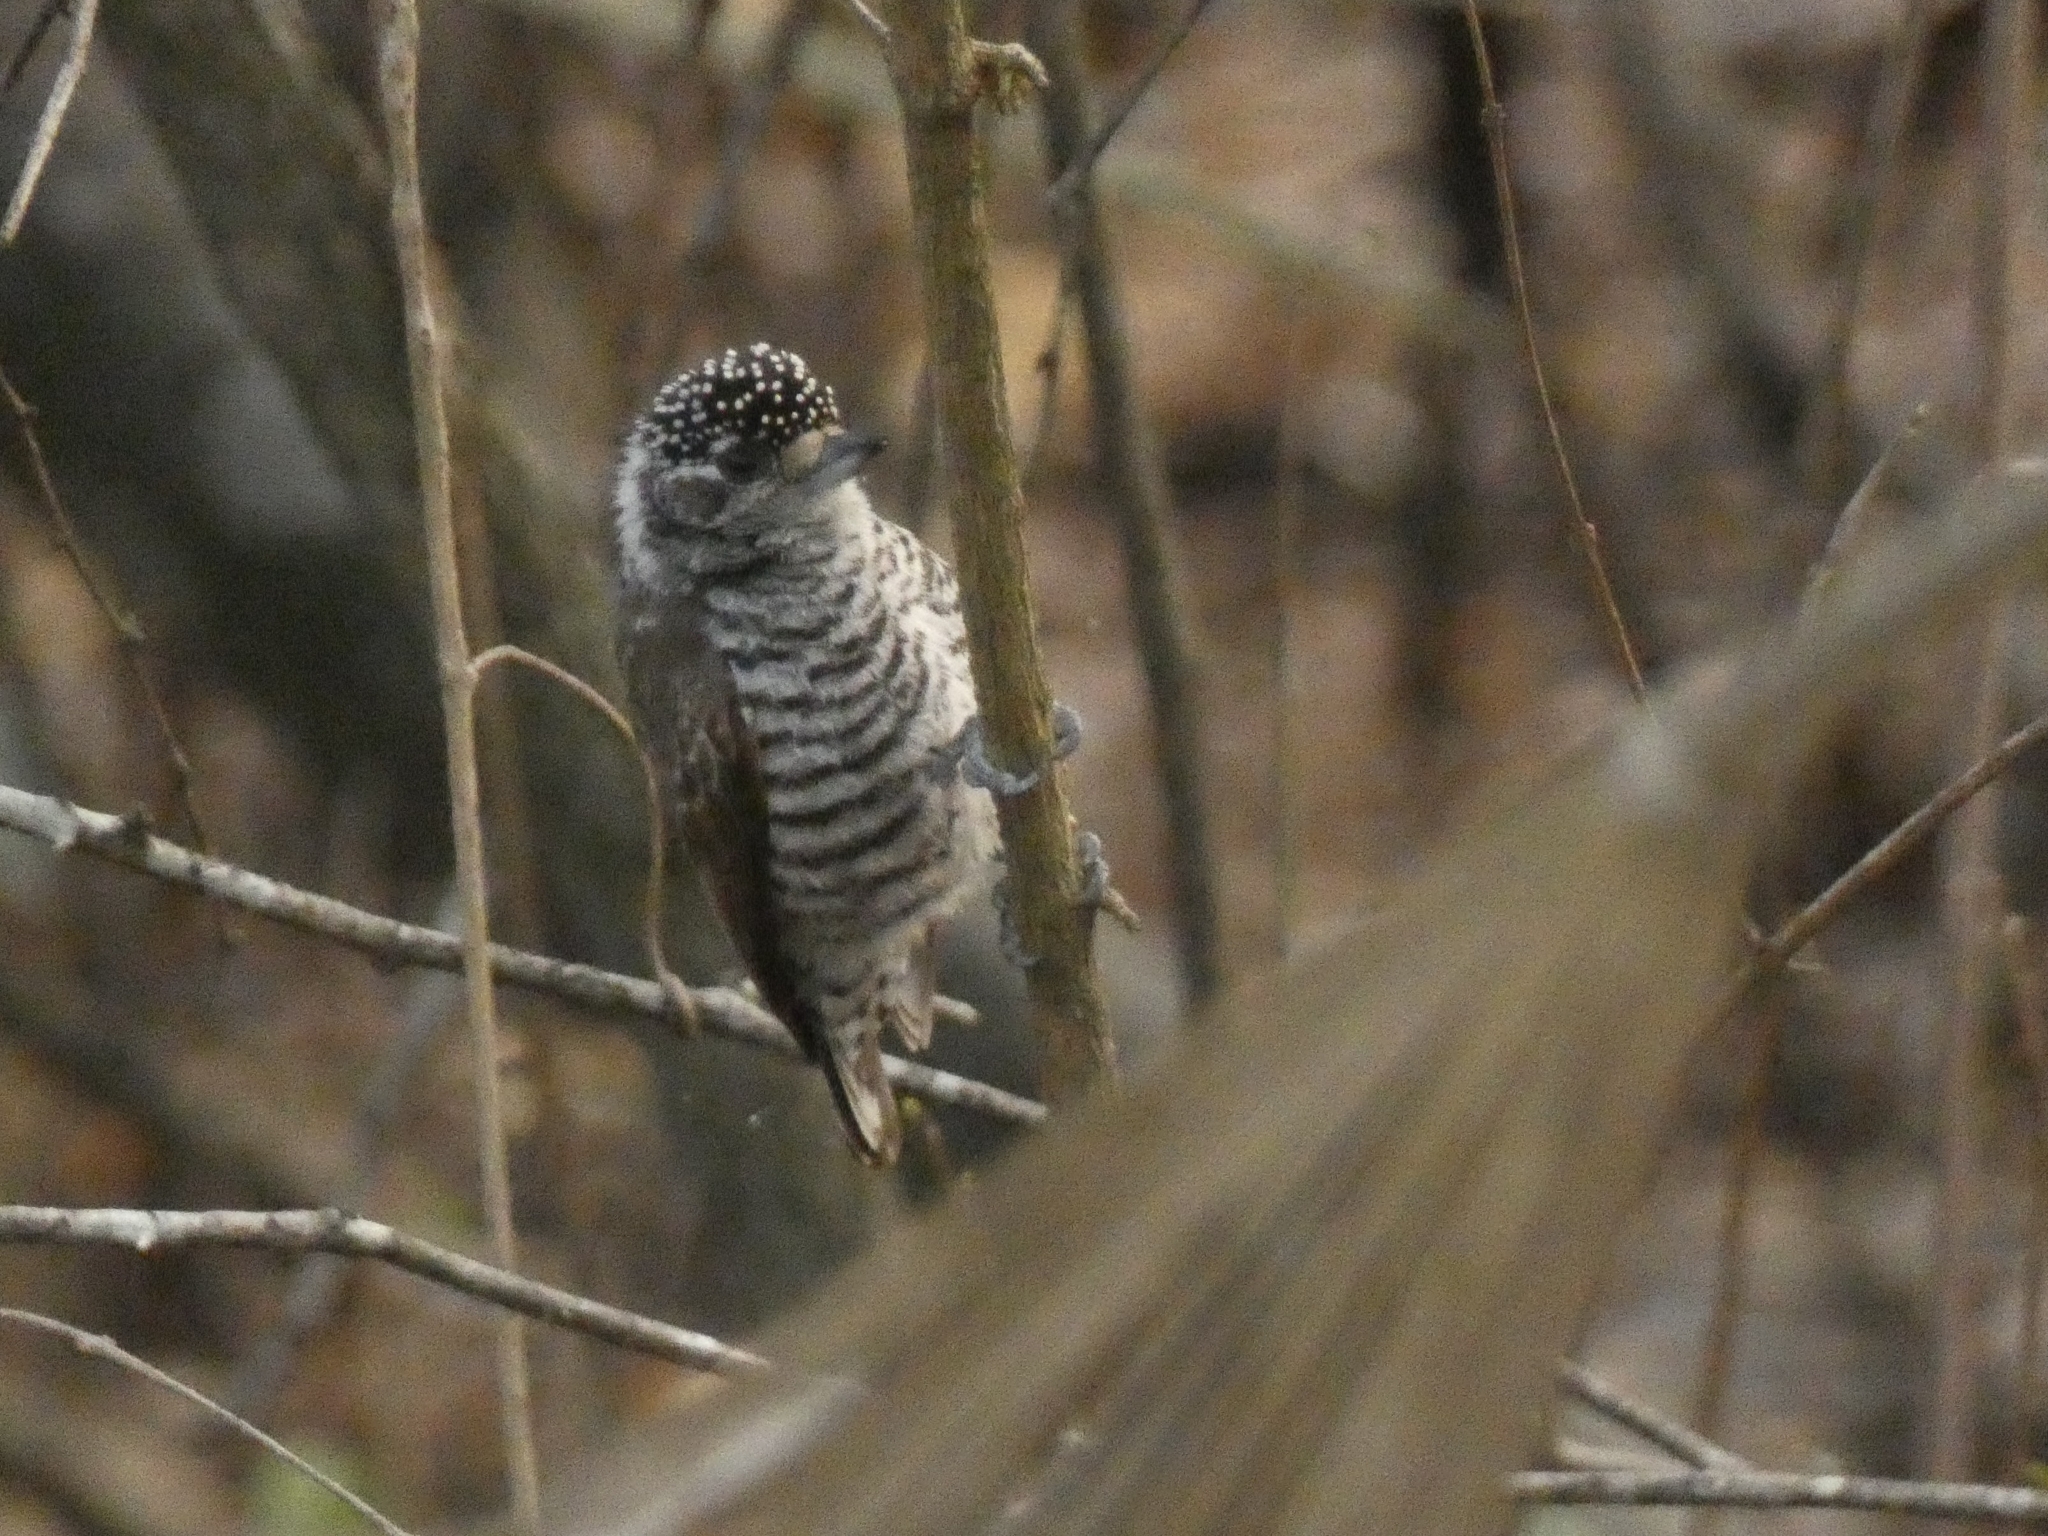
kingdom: Animalia
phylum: Chordata
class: Aves
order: Piciformes
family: Picidae
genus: Picumnus
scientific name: Picumnus cirratus
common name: White-barred piculet
